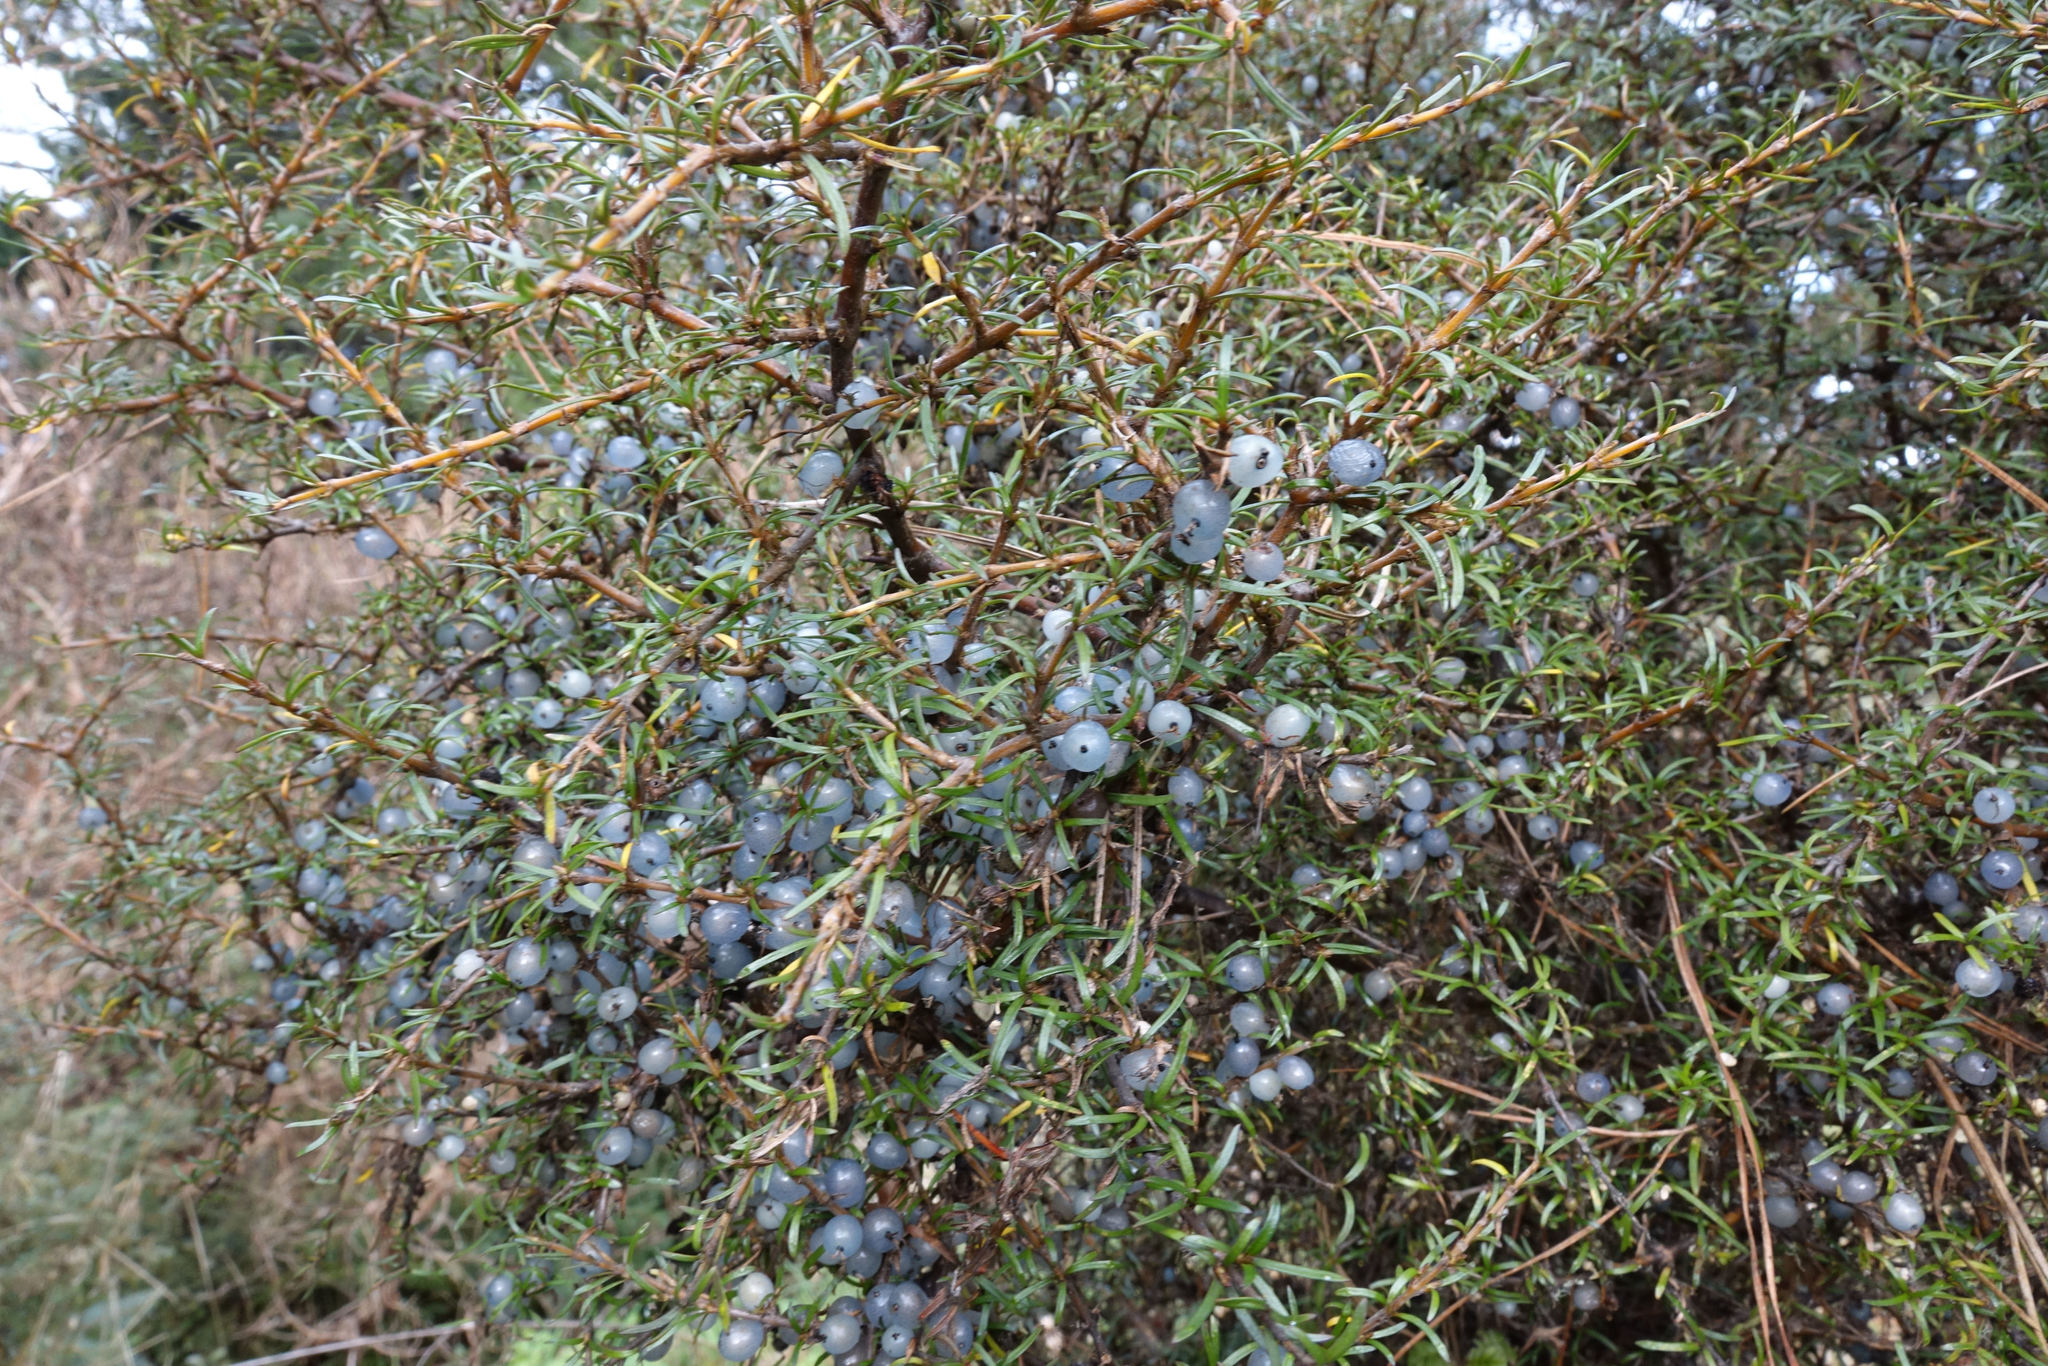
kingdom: Plantae
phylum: Tracheophyta
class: Magnoliopsida
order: Gentianales
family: Rubiaceae
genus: Coprosma
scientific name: Coprosma rugosa
